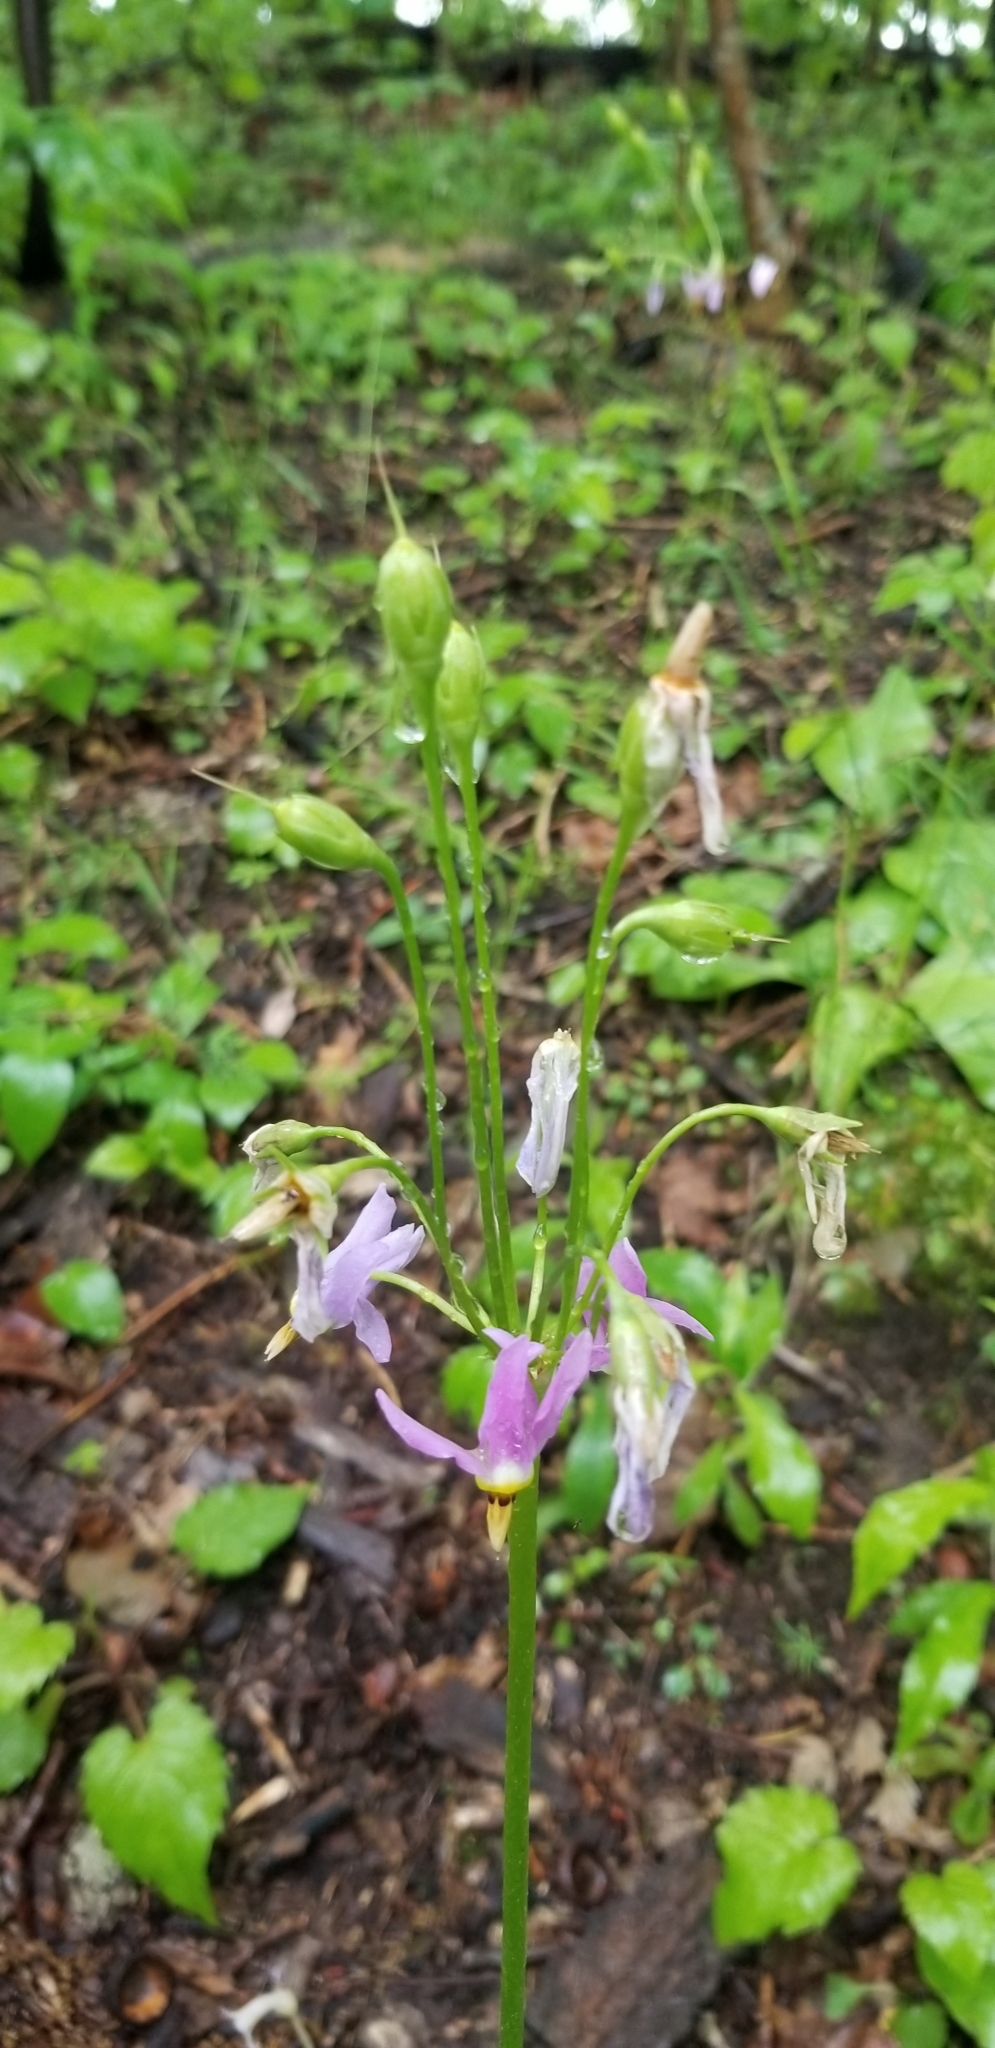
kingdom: Plantae
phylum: Tracheophyta
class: Magnoliopsida
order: Ericales
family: Primulaceae
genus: Dodecatheon
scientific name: Dodecatheon meadia
